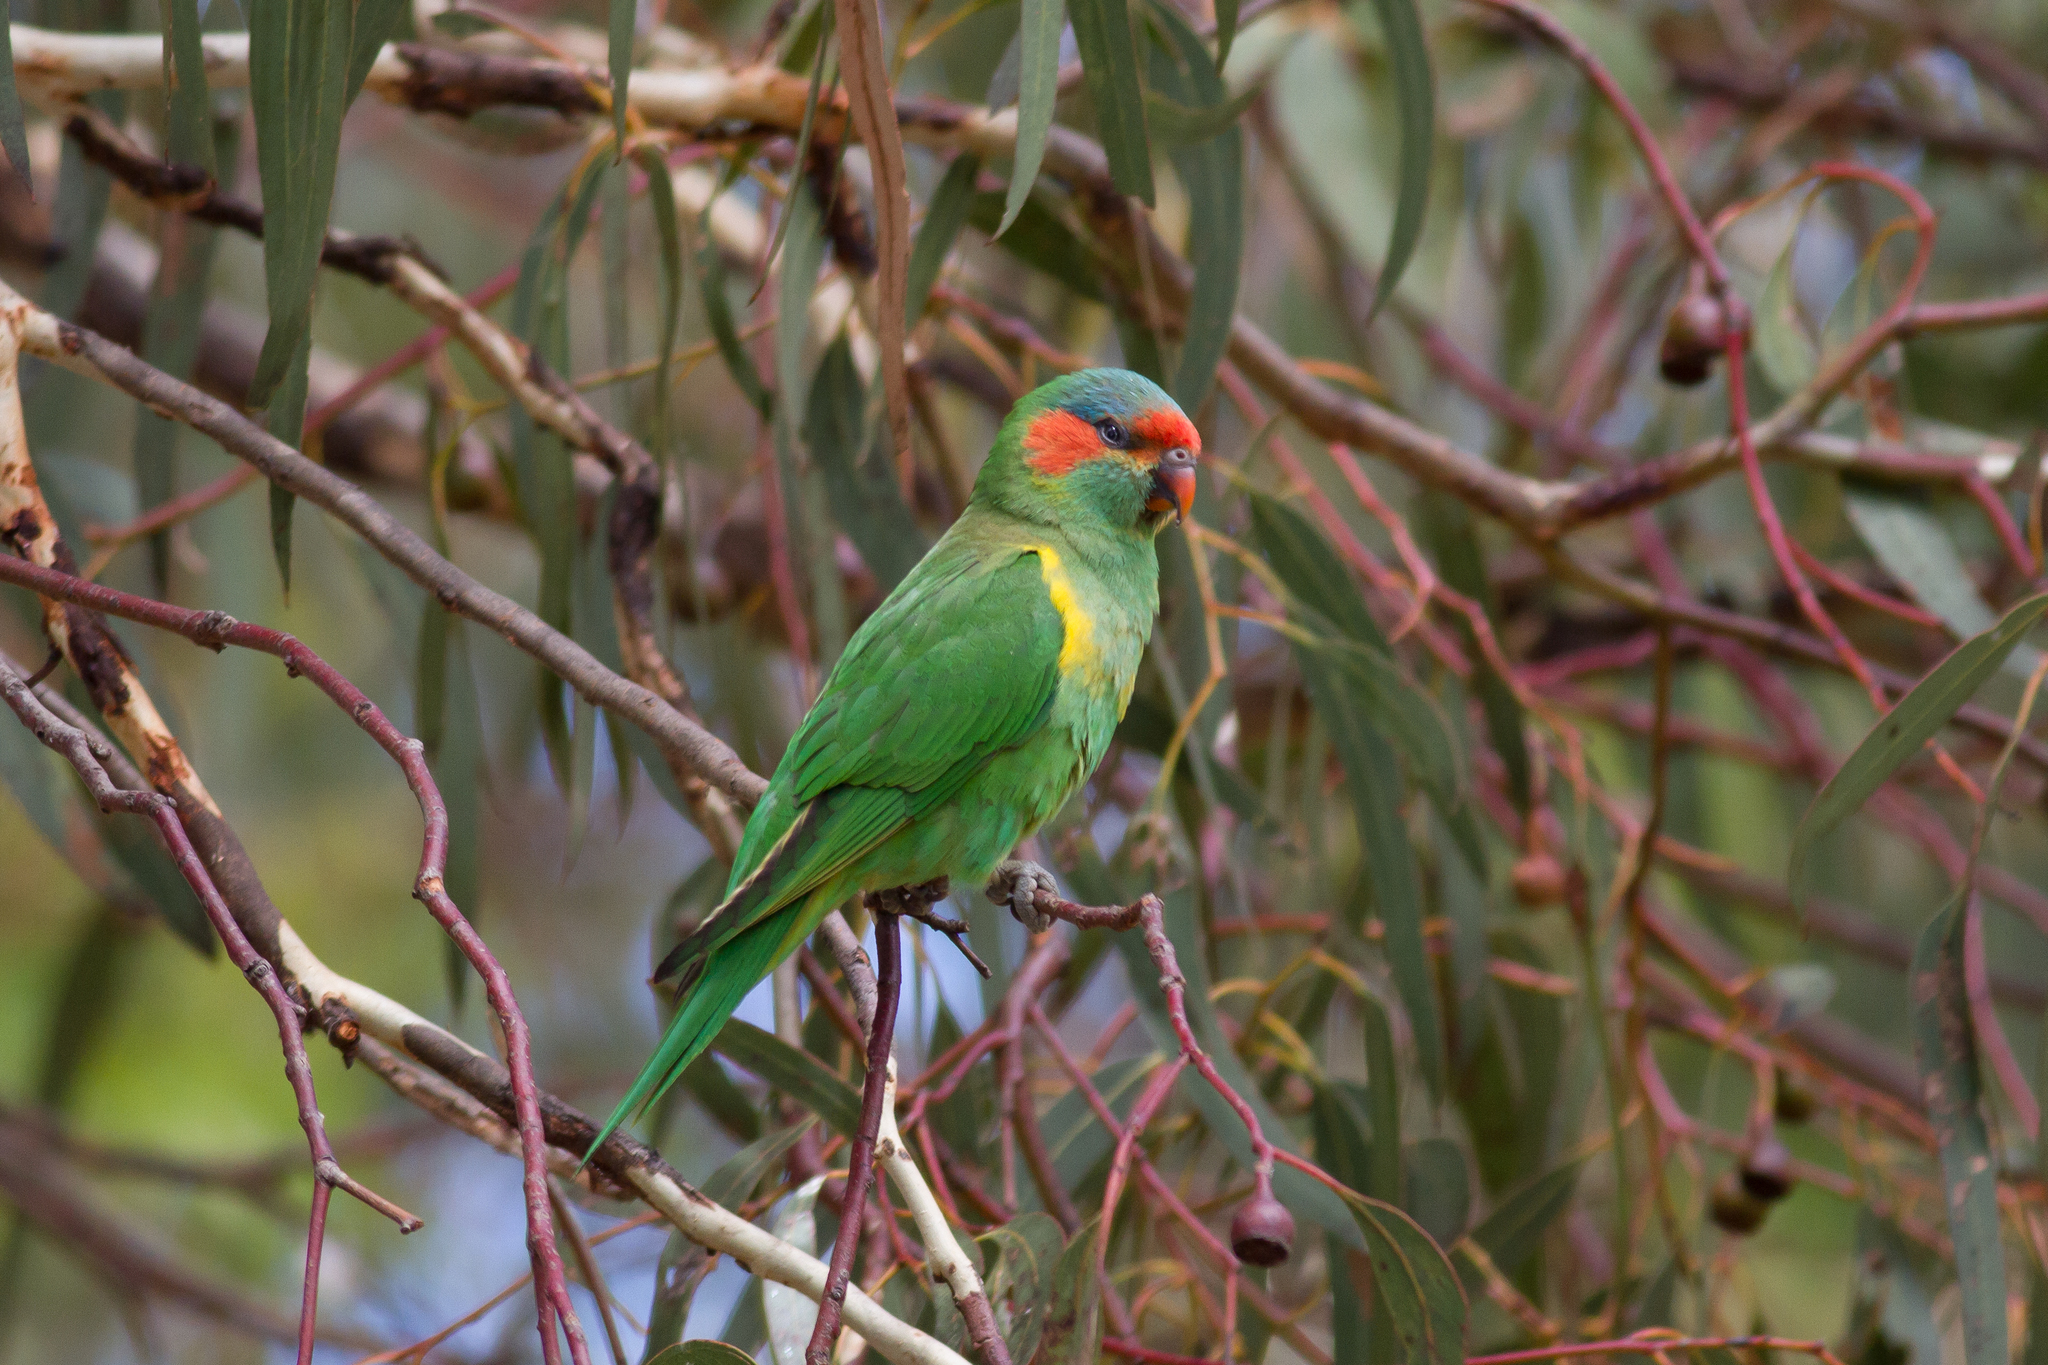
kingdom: Animalia
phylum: Chordata
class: Aves
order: Psittaciformes
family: Psittacidae
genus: Glossopsitta
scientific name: Glossopsitta concinna
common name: Musk lorikeet
